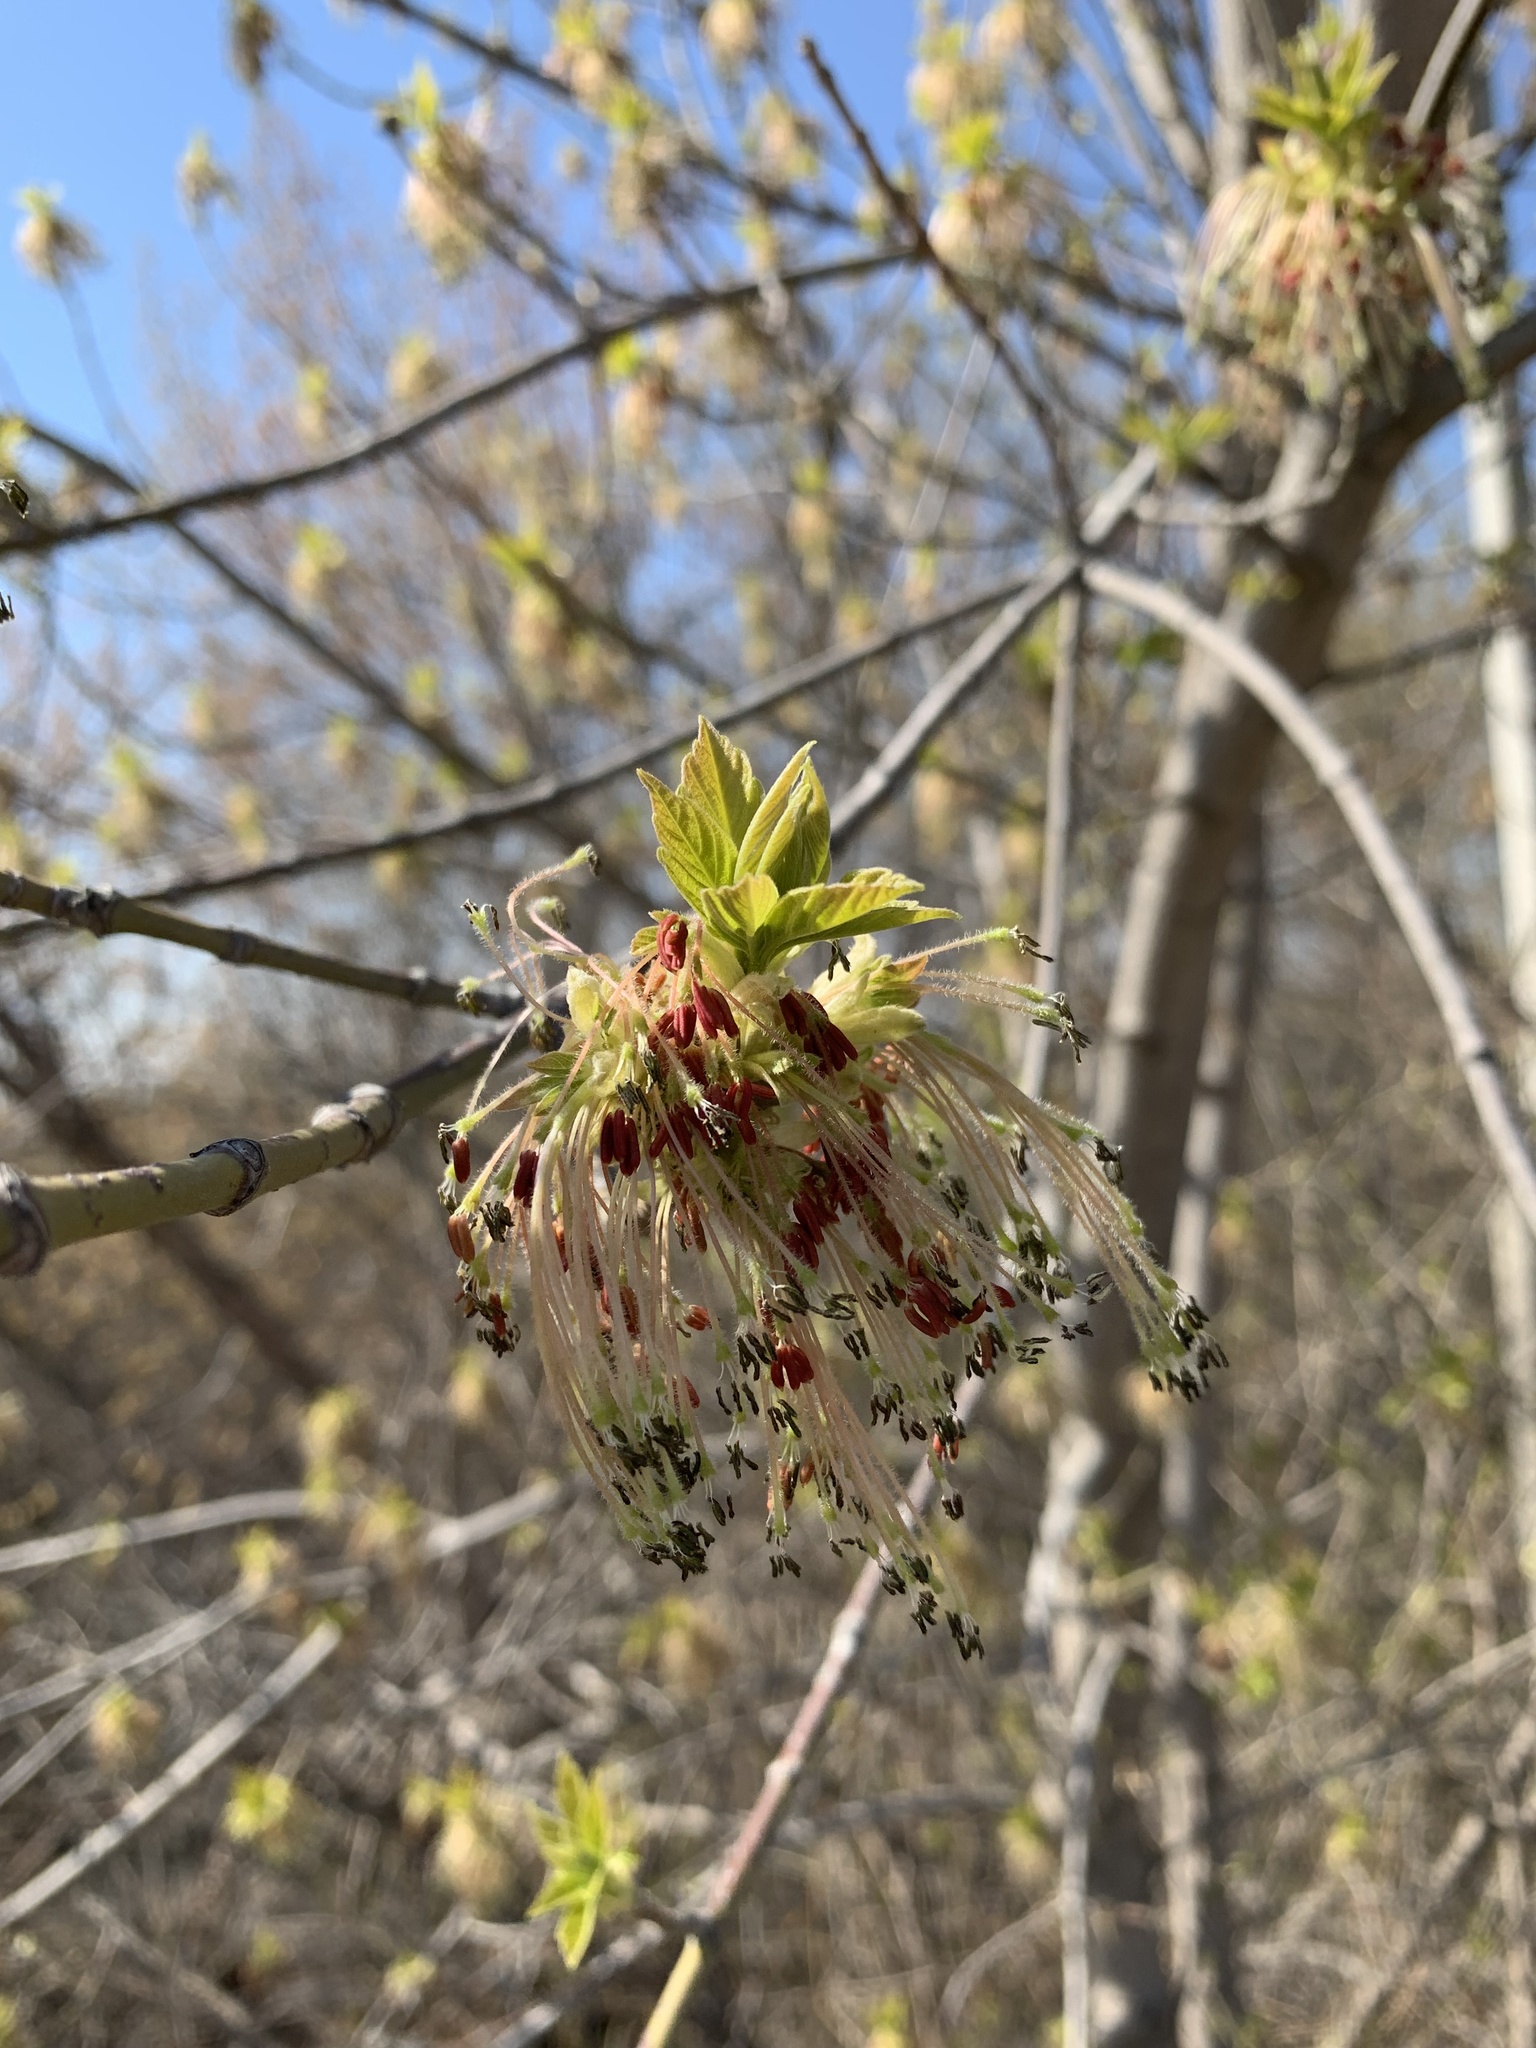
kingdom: Plantae
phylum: Tracheophyta
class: Magnoliopsida
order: Sapindales
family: Sapindaceae
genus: Acer
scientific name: Acer negundo
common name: Ashleaf maple
